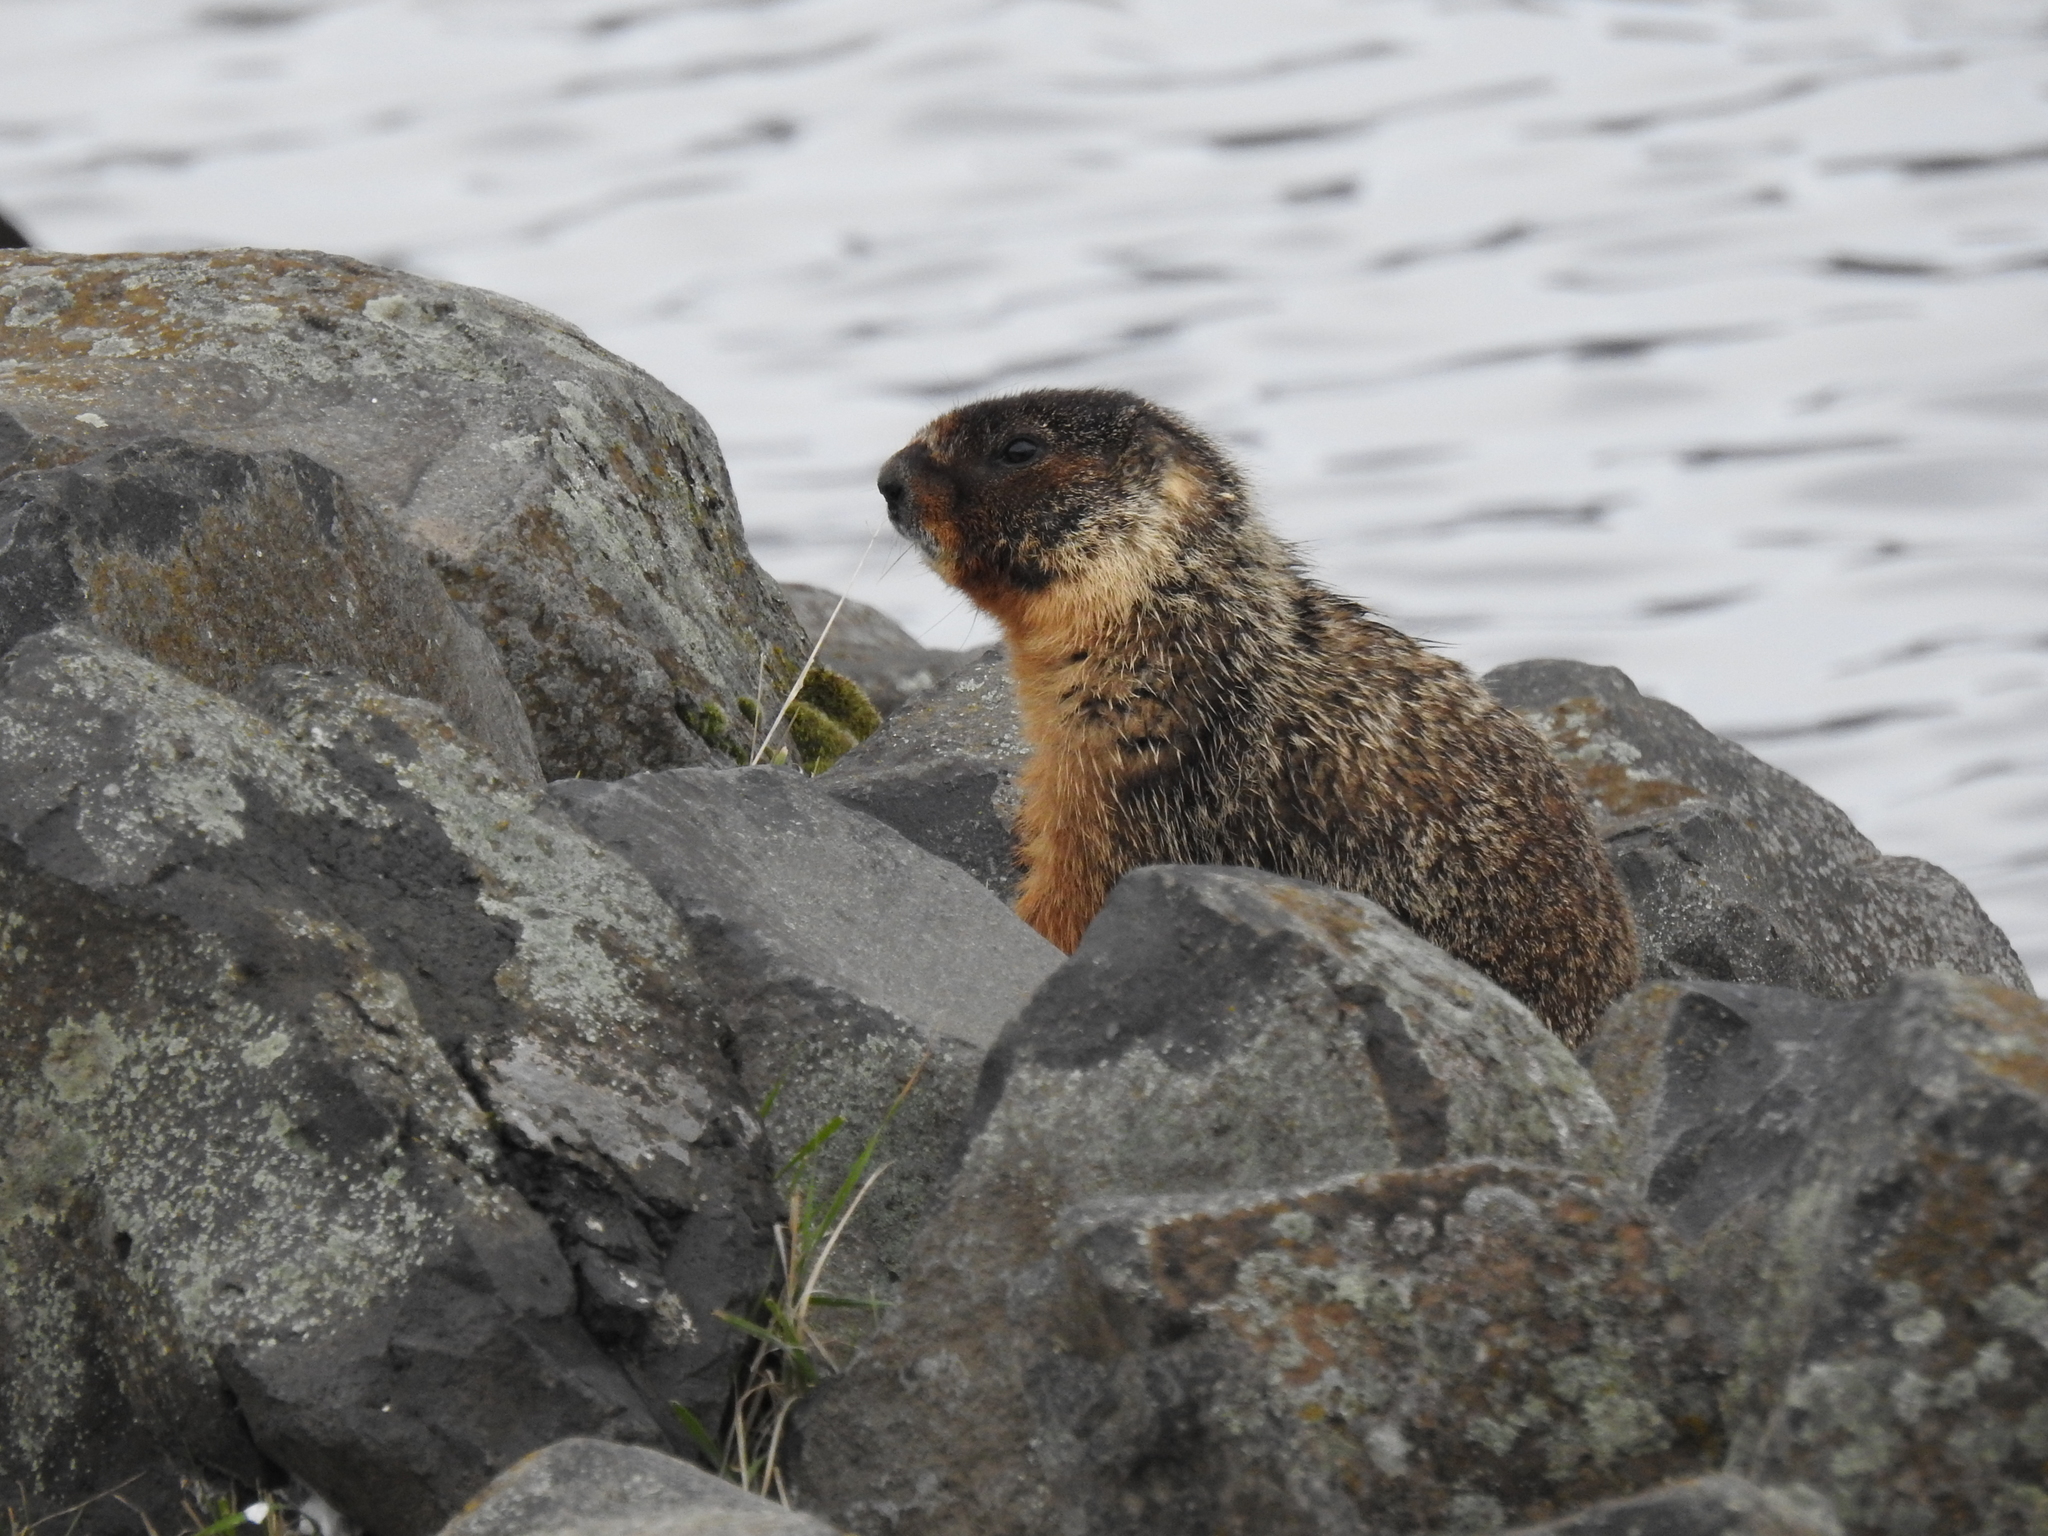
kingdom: Animalia
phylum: Chordata
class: Mammalia
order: Rodentia
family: Sciuridae
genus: Marmota
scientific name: Marmota flaviventris
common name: Yellow-bellied marmot
